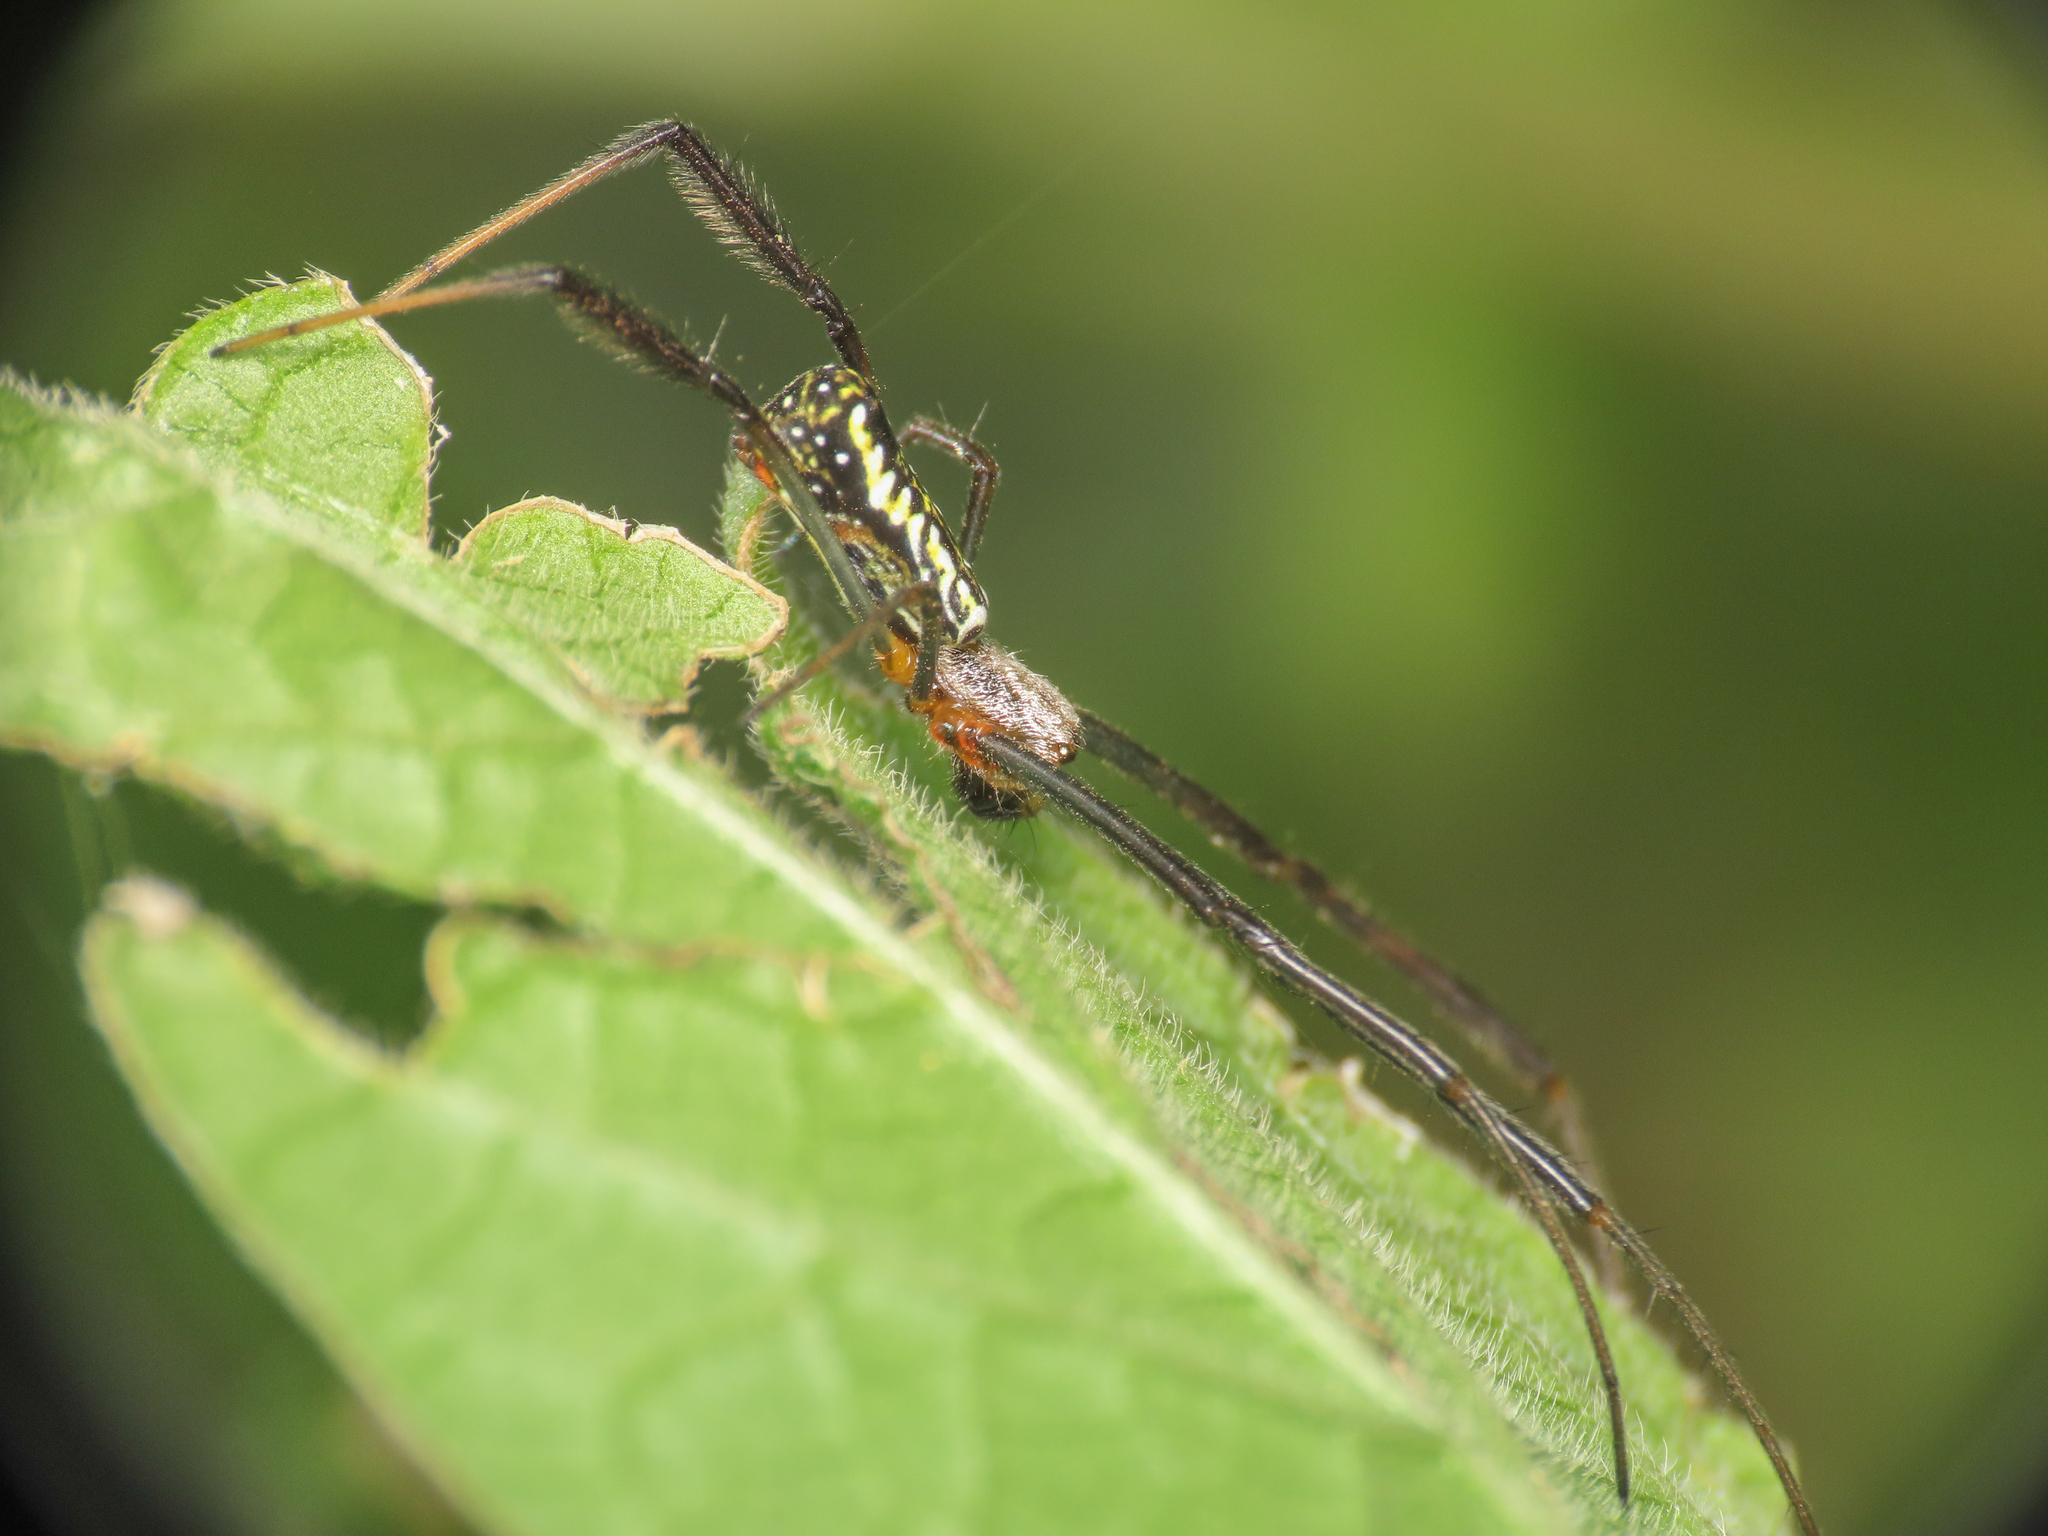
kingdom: Animalia
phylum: Arthropoda
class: Arachnida
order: Araneae
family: Araneidae
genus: Trichonephila
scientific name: Trichonephila fenestrata
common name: Hairy golden orb weaver
